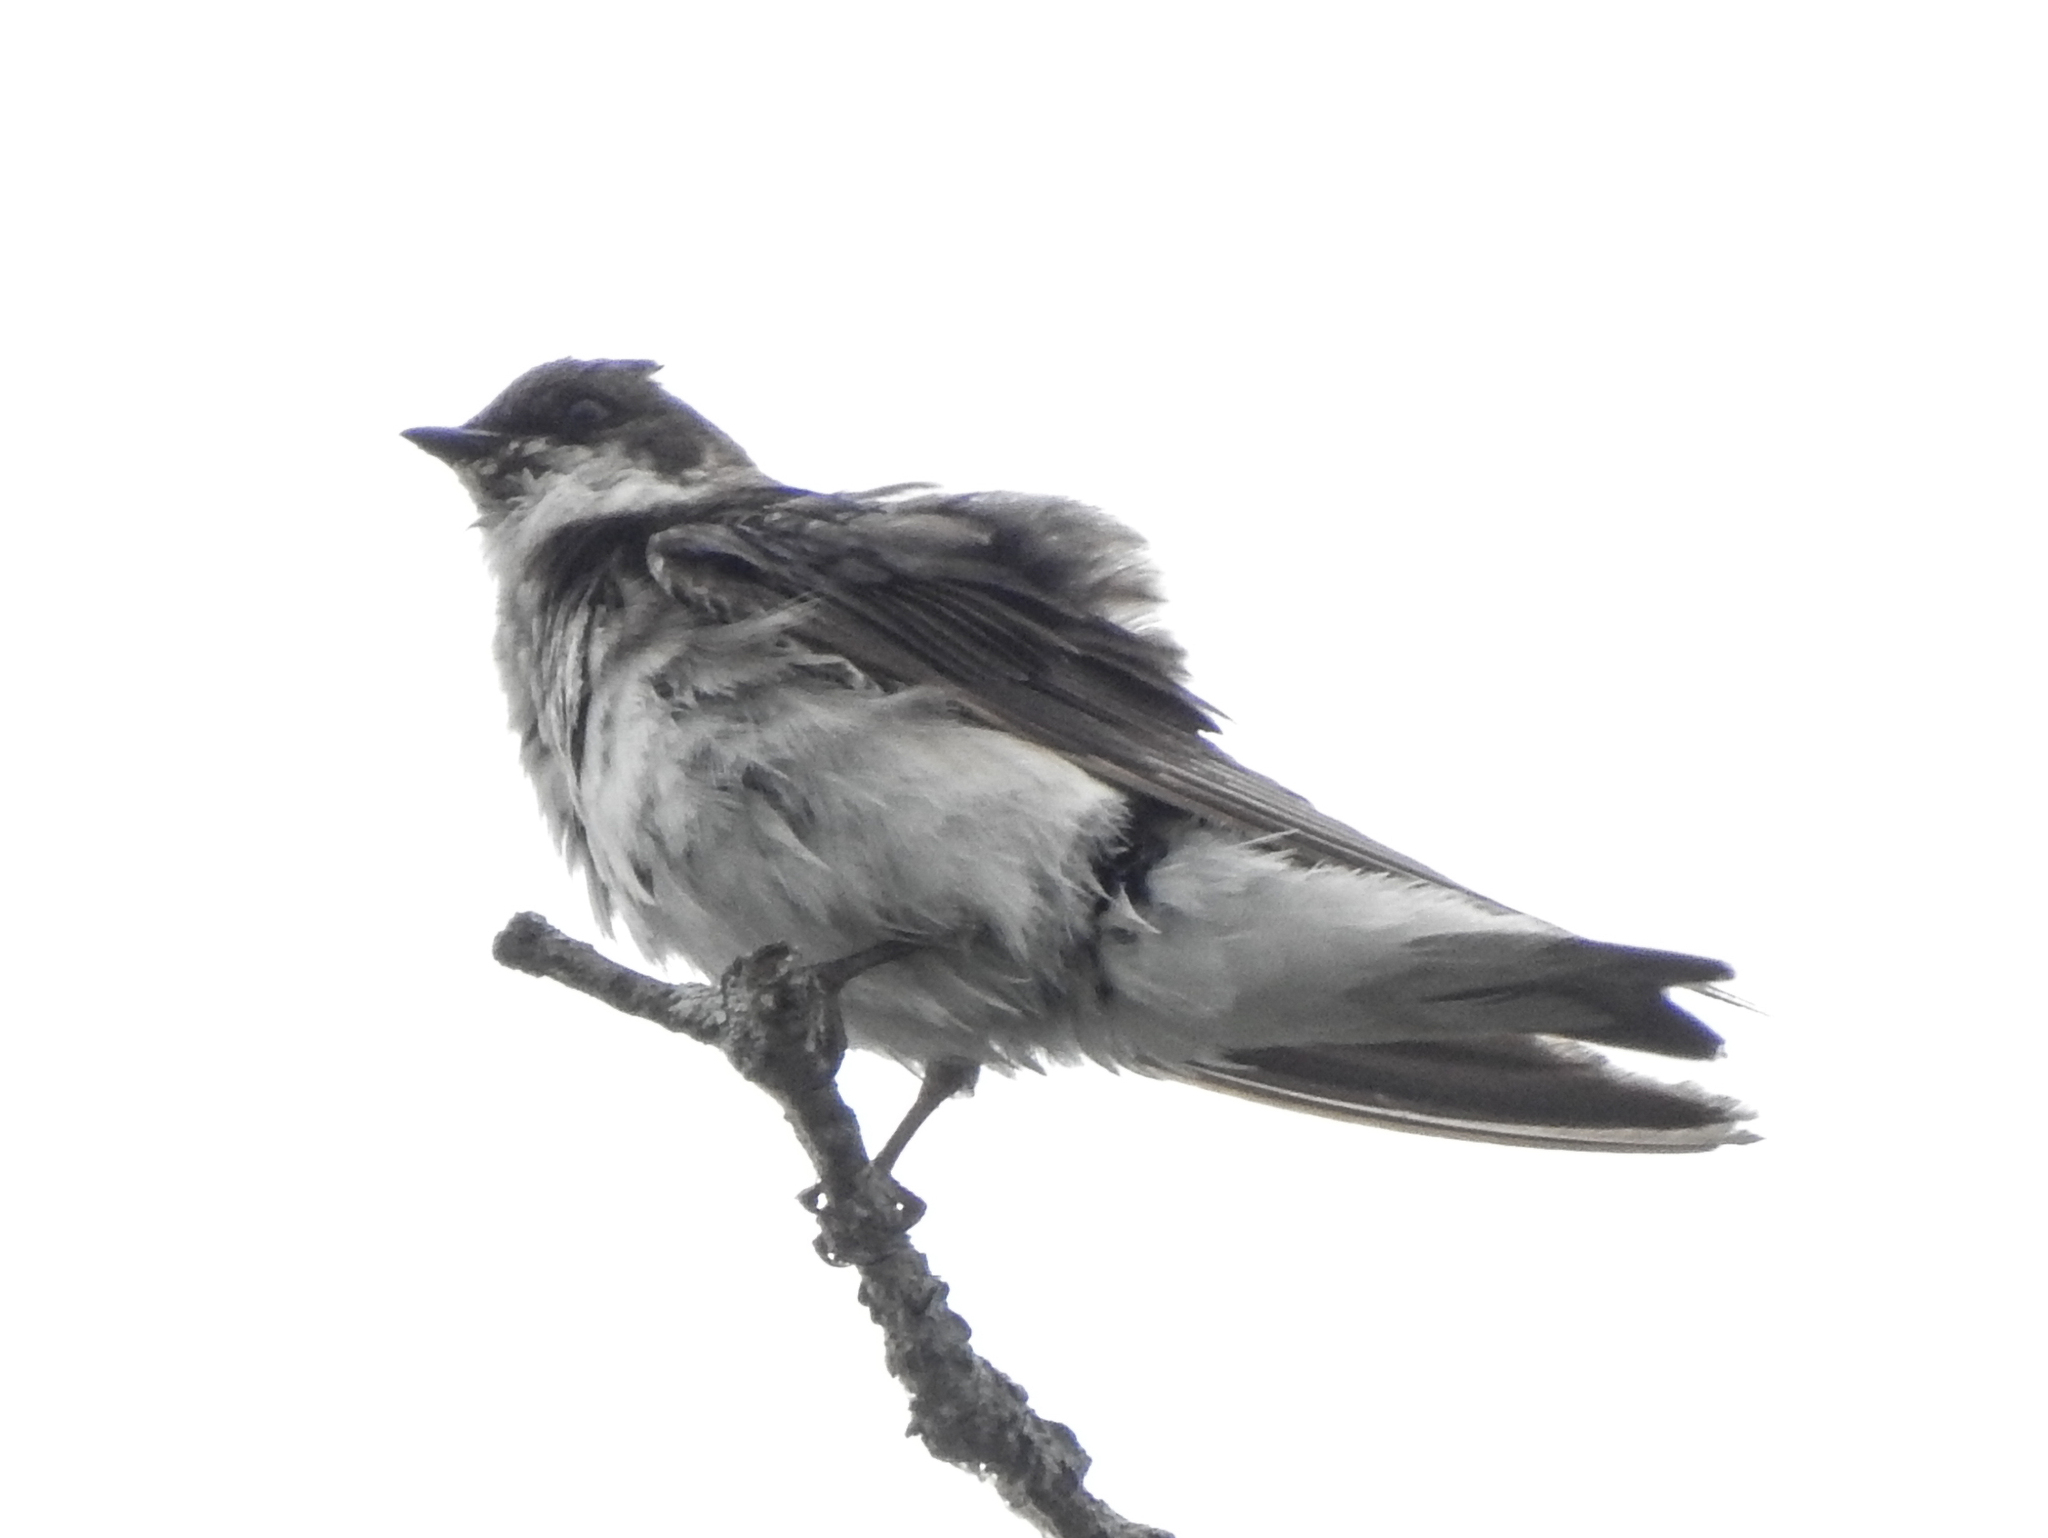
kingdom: Animalia
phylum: Chordata
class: Aves
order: Passeriformes
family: Hirundinidae
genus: Tachycineta
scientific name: Tachycineta bicolor
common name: Tree swallow
